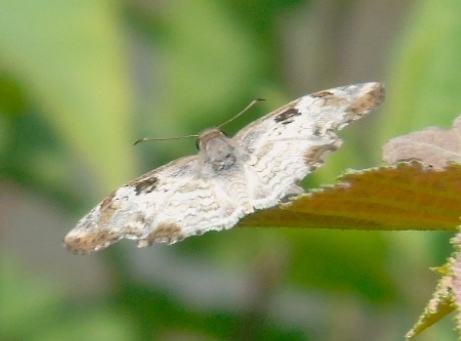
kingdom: Animalia
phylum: Arthropoda
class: Insecta
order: Lepidoptera
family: Hesperiidae
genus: Antigonus
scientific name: Antigonus emorsa
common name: White spurwing
